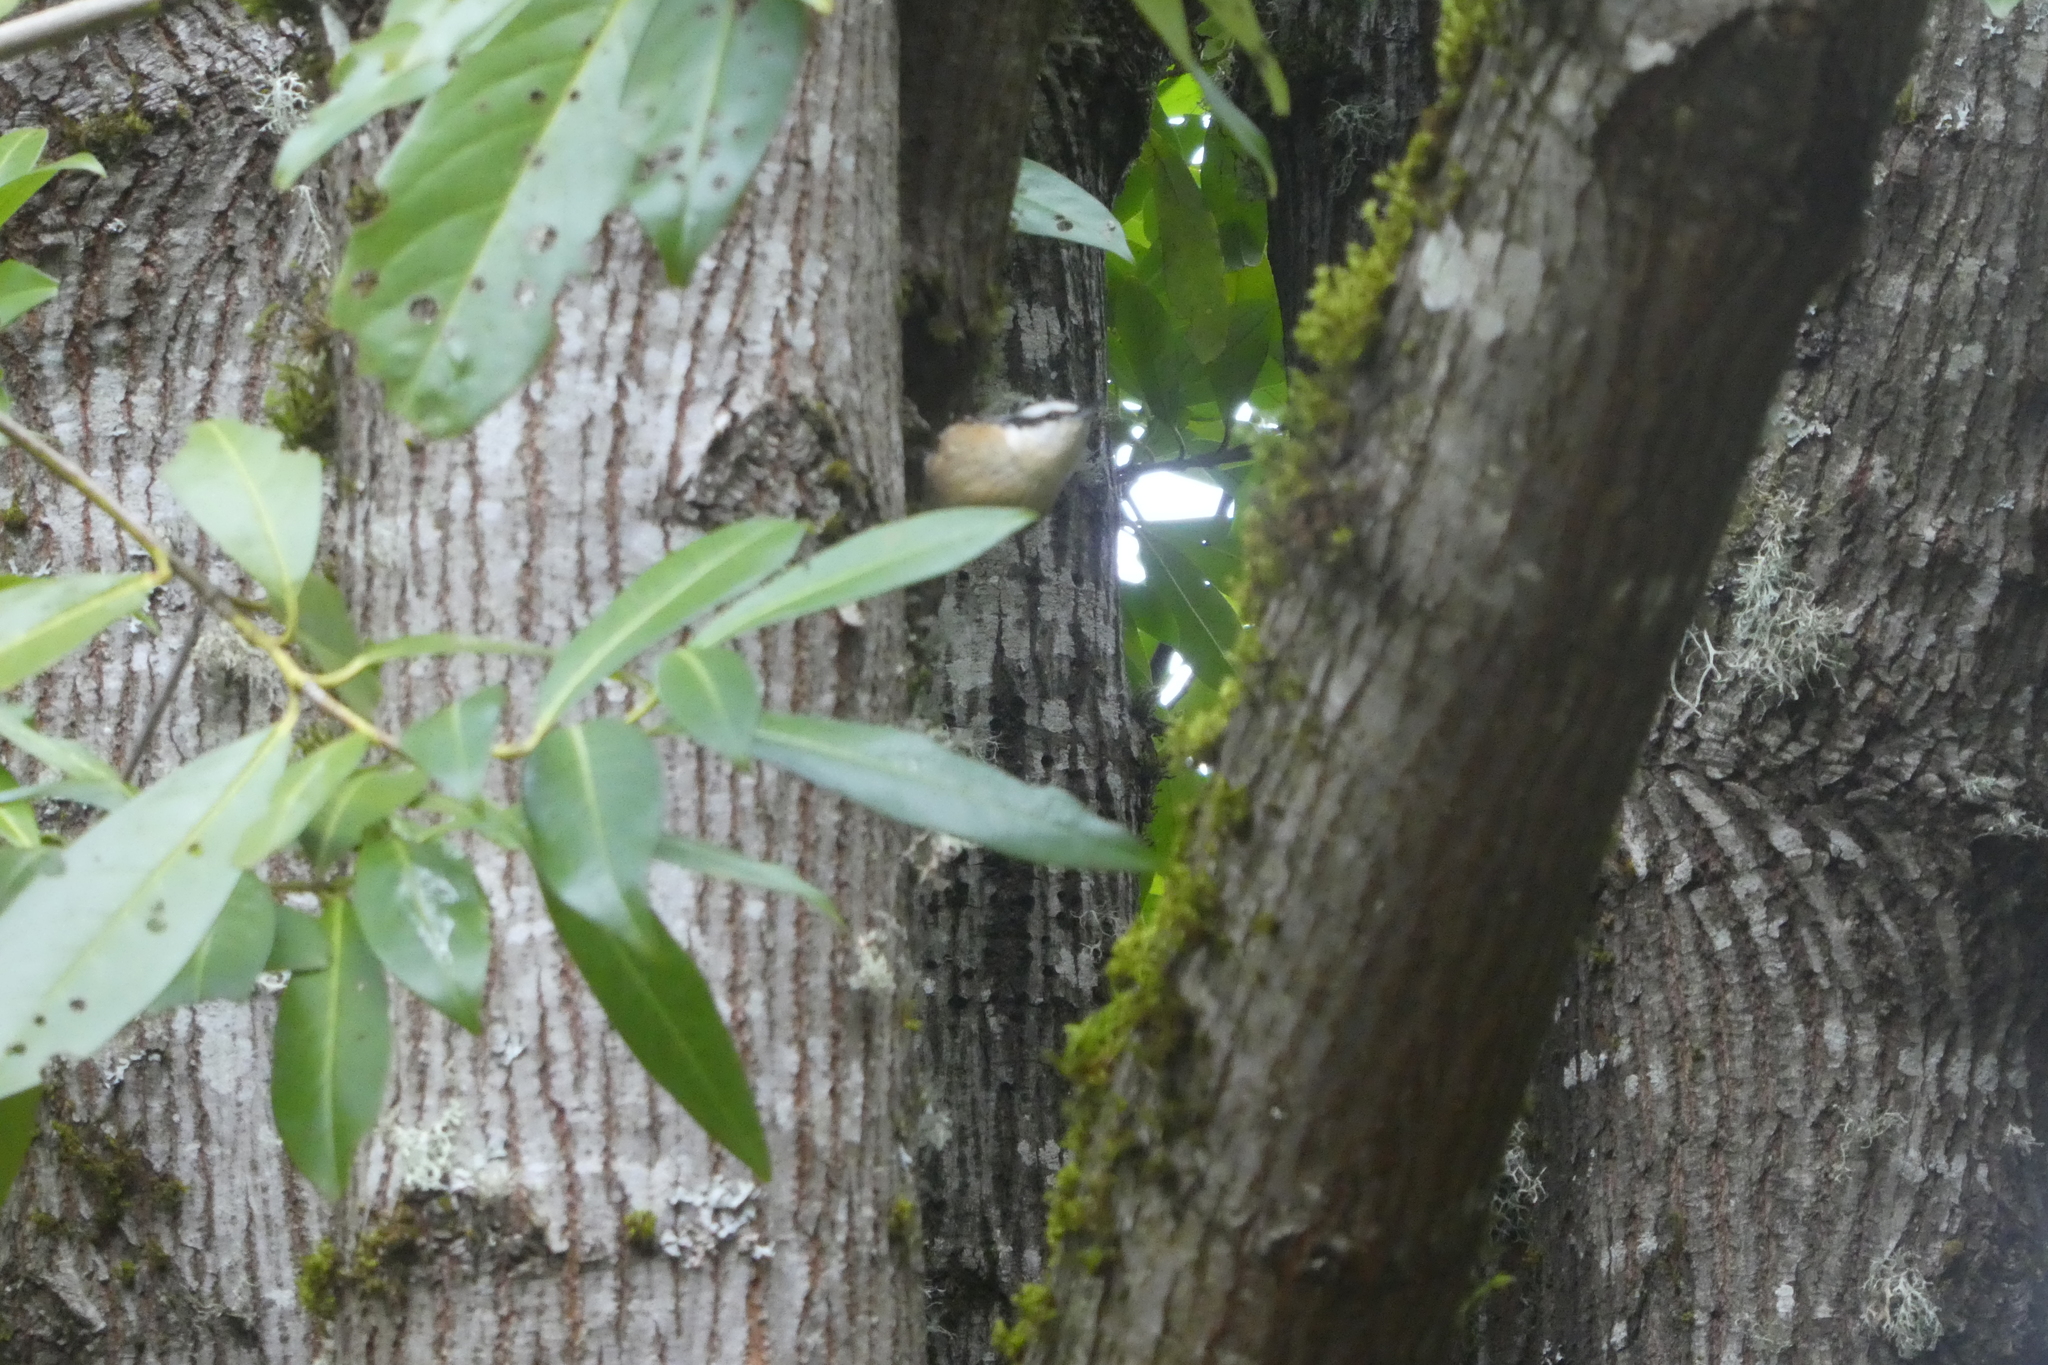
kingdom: Animalia
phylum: Chordata
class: Aves
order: Passeriformes
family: Sittidae
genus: Sitta
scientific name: Sitta canadensis
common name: Red-breasted nuthatch
